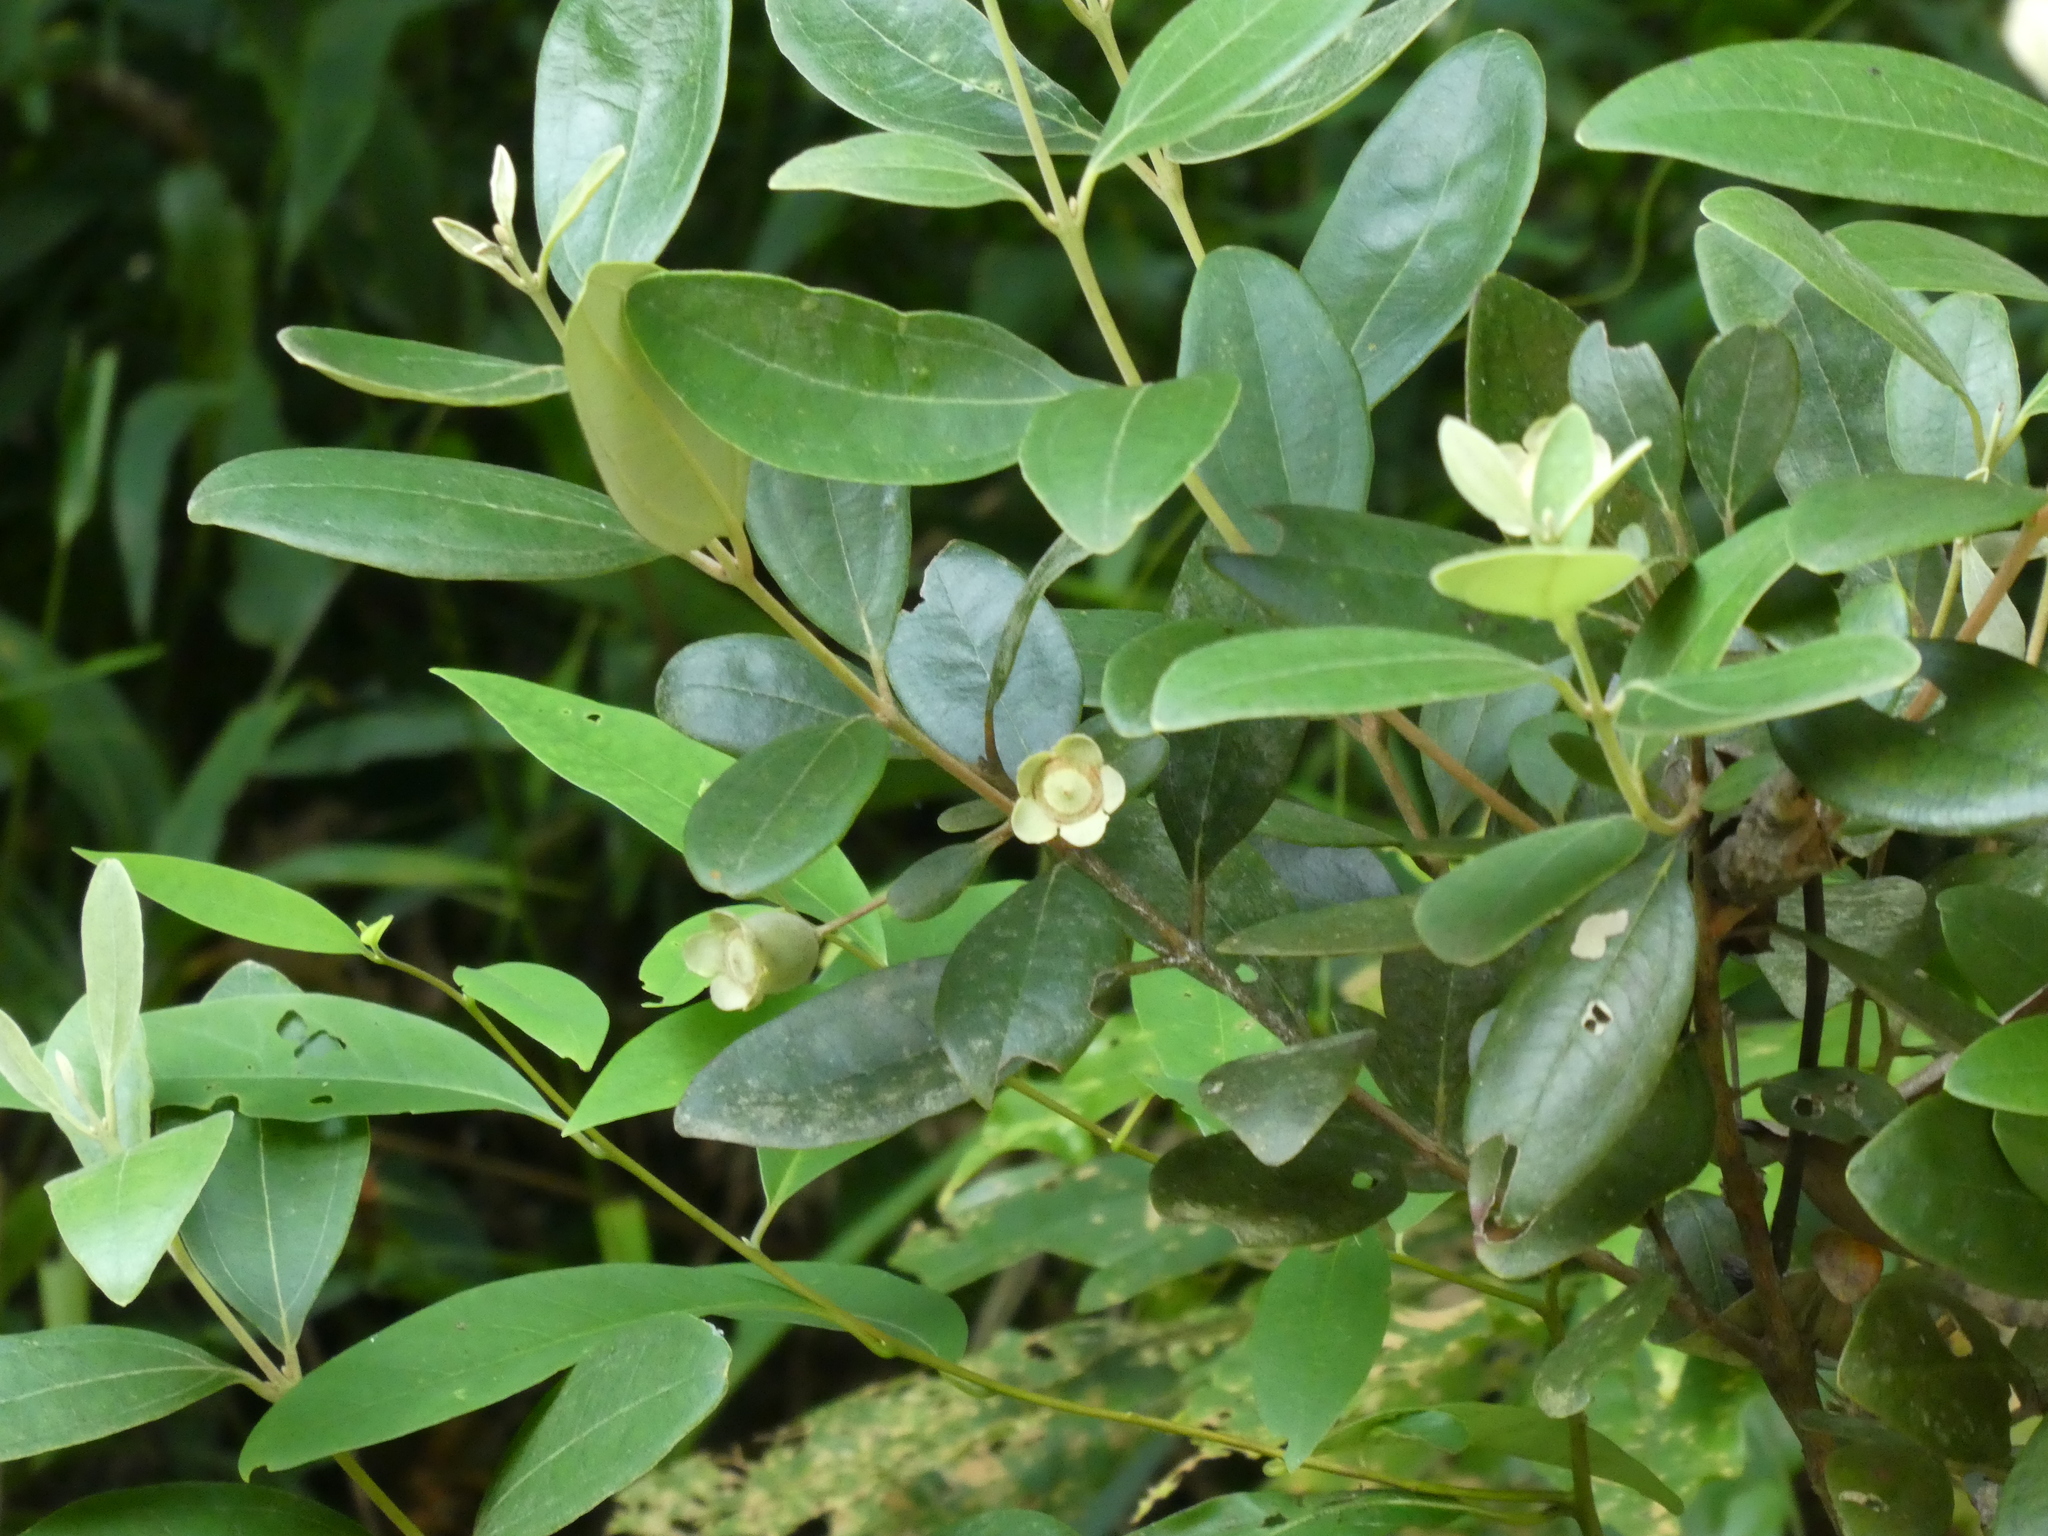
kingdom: Plantae
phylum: Tracheophyta
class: Magnoliopsida
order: Myrtales
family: Myrtaceae
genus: Rhodomyrtus
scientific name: Rhodomyrtus tomentosa
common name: Rose myrtle
